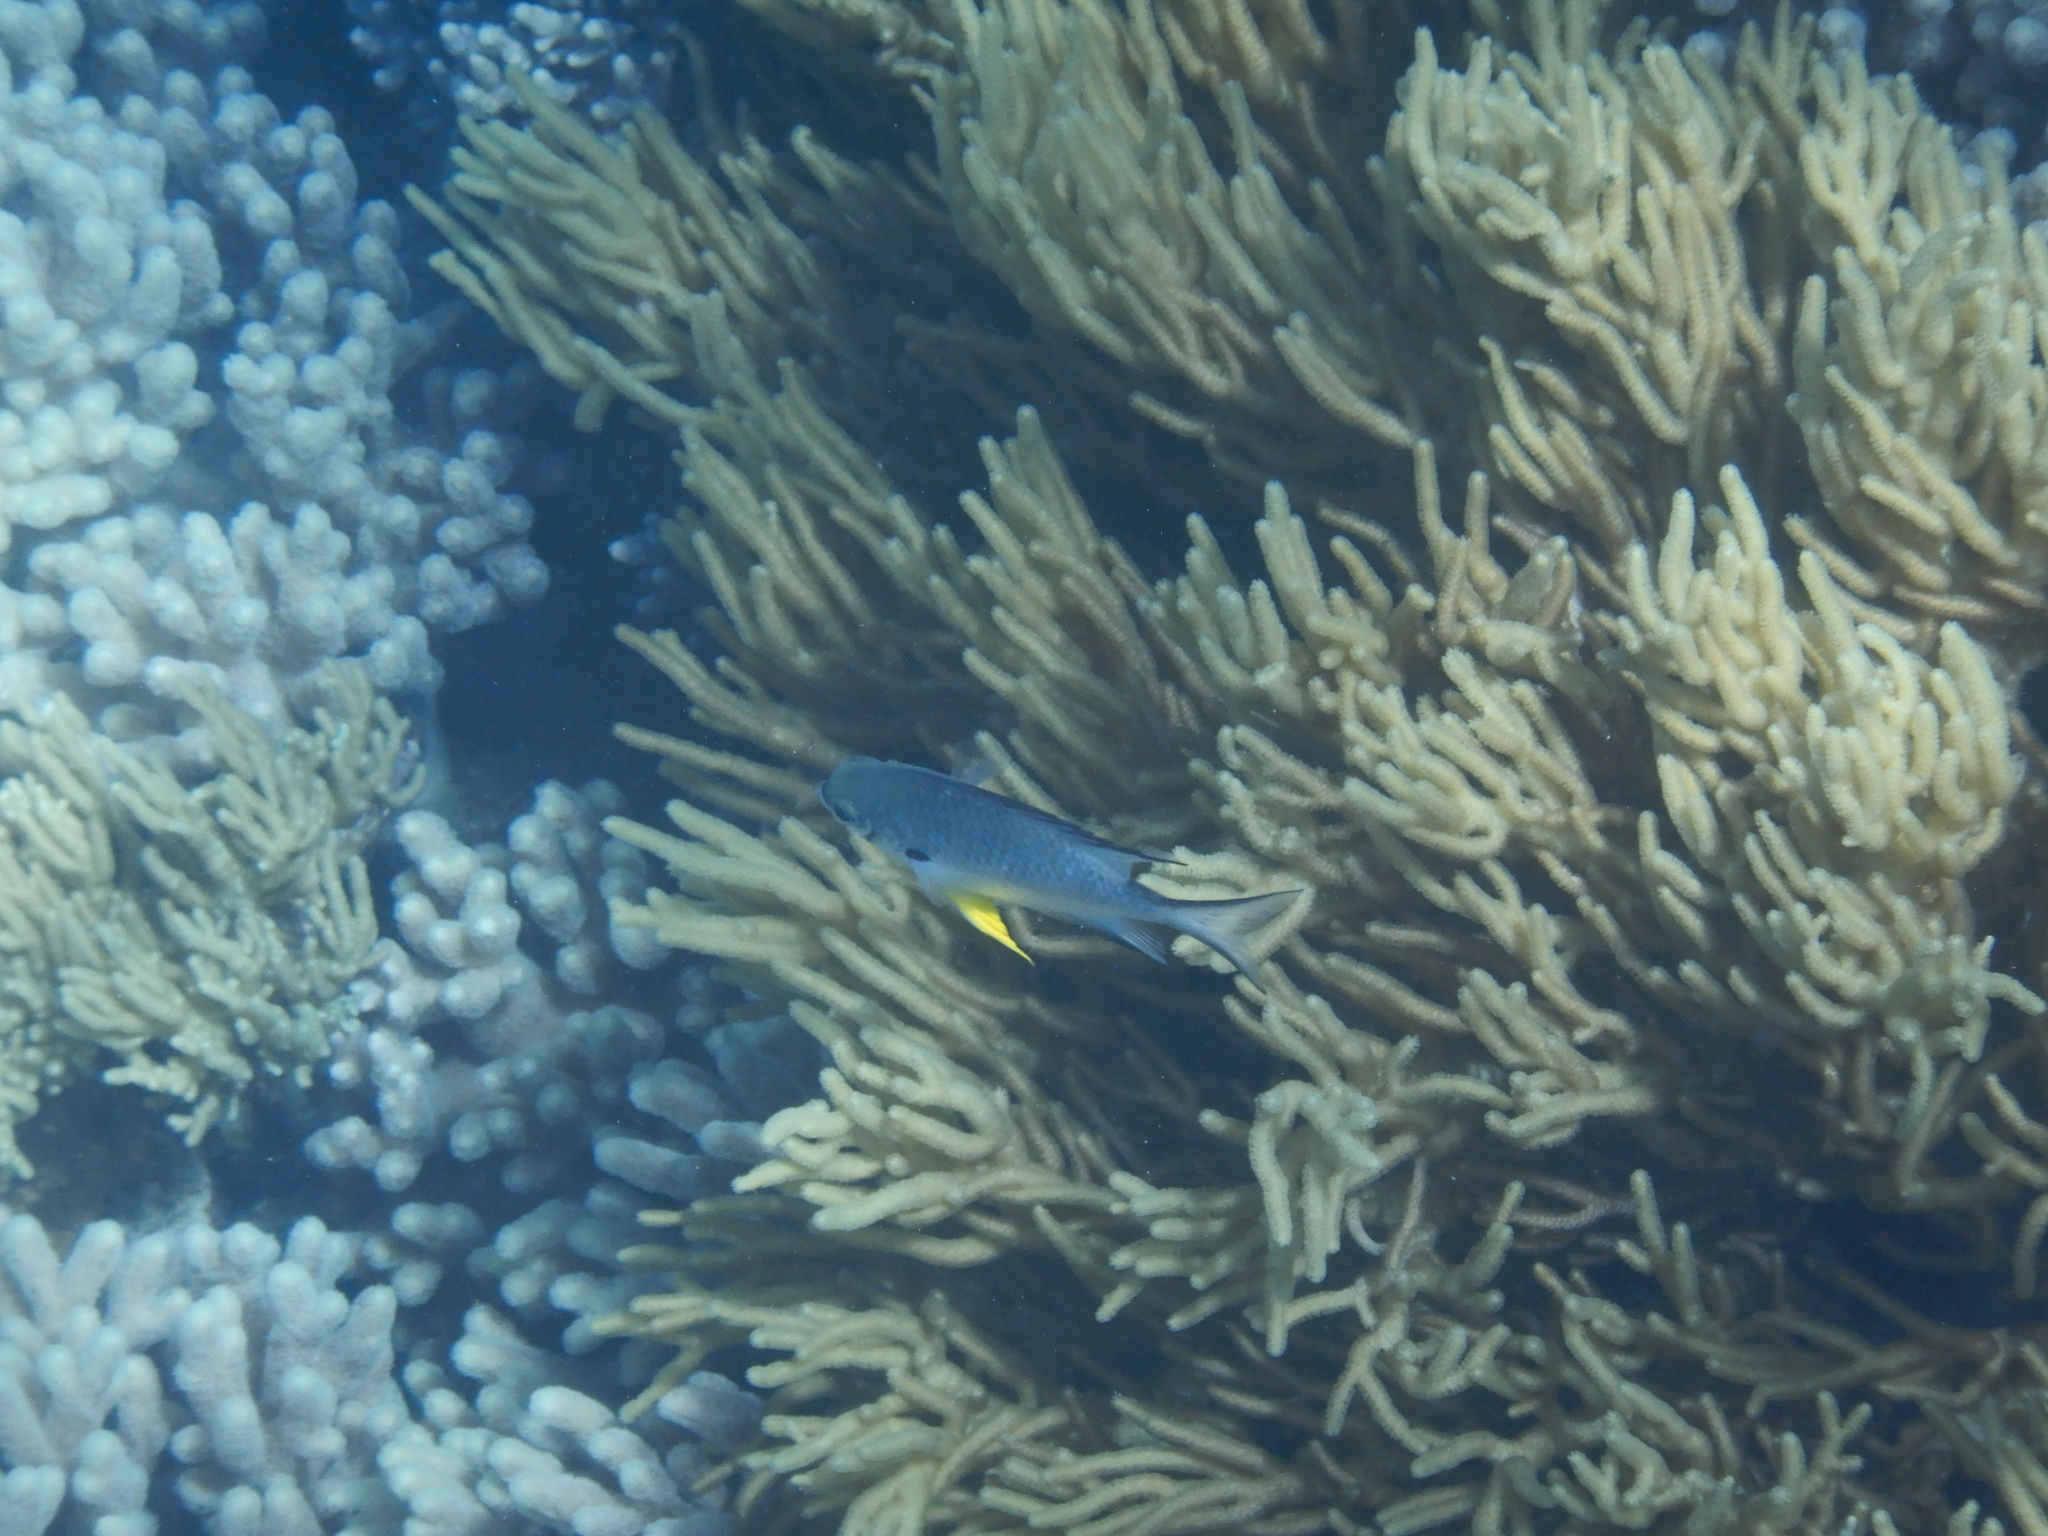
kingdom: Animalia
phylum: Chordata
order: Perciformes
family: Pomacentridae
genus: Amblyglyphidodon
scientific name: Amblyglyphidodon leucogaster
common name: White-belly damsel
